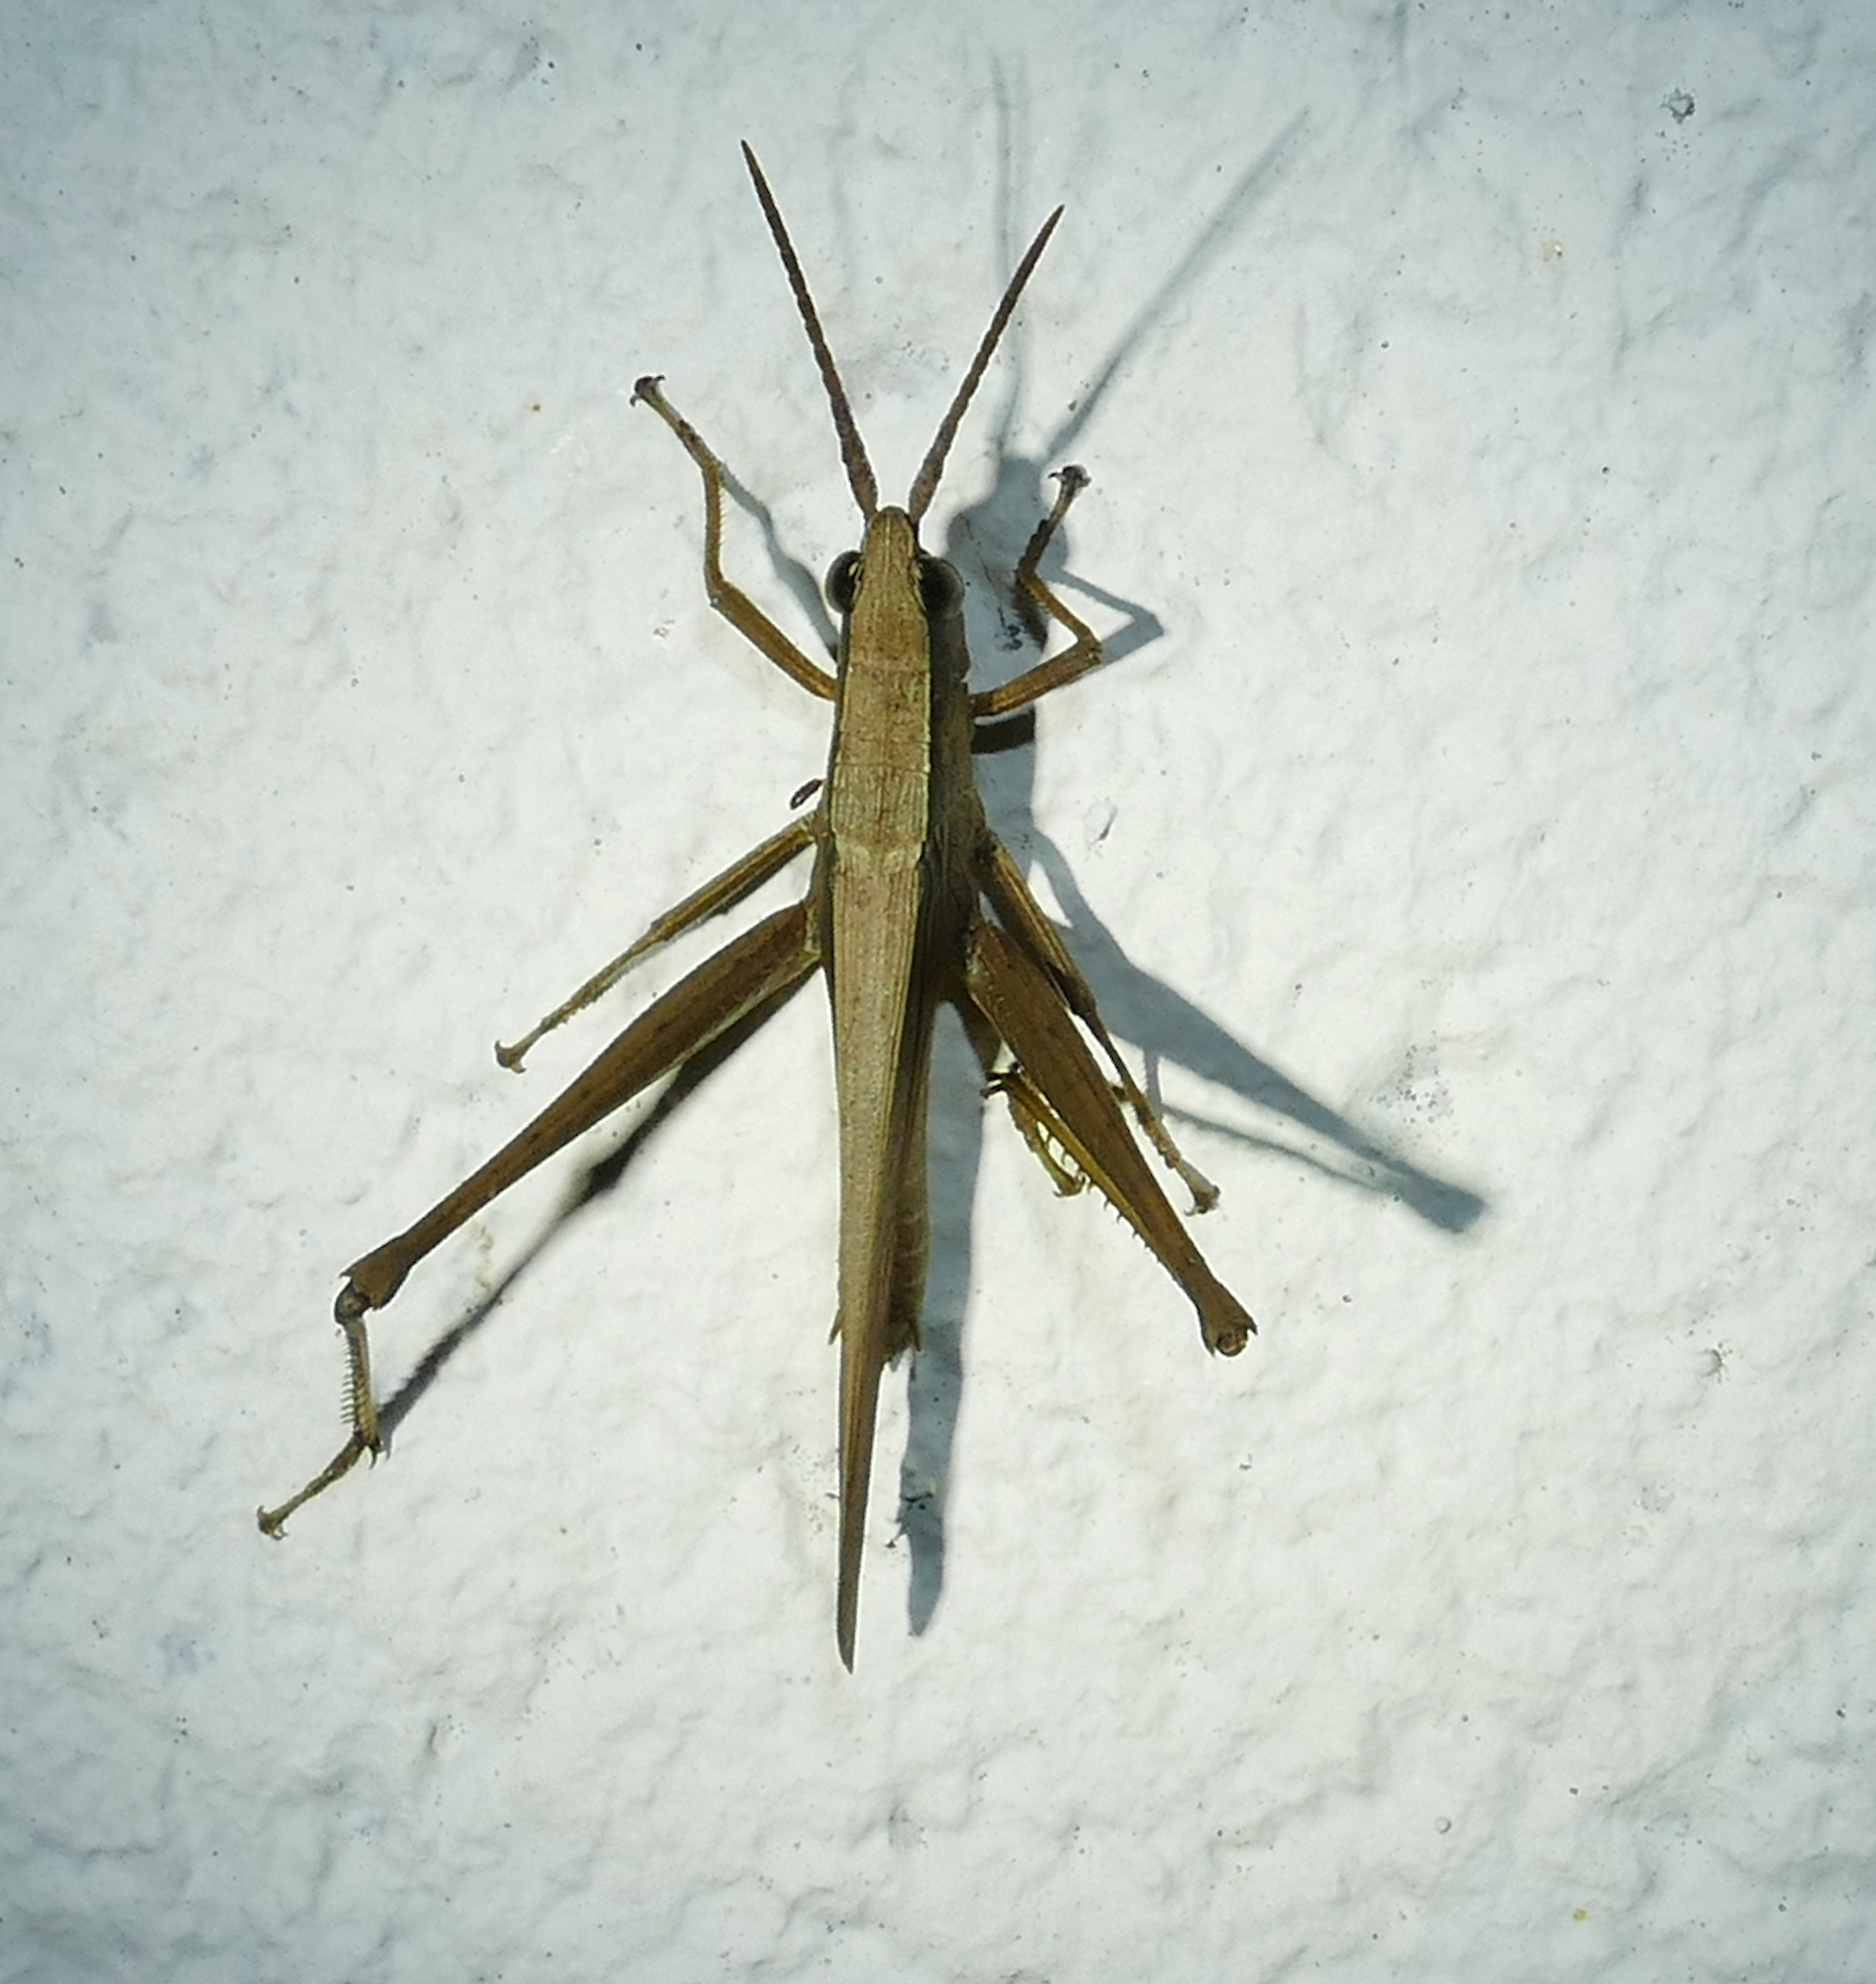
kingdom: Animalia
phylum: Arthropoda
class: Insecta
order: Orthoptera
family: Acrididae
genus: Metaleptea
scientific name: Metaleptea brevicornis
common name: Clipped-wing grasshopper
